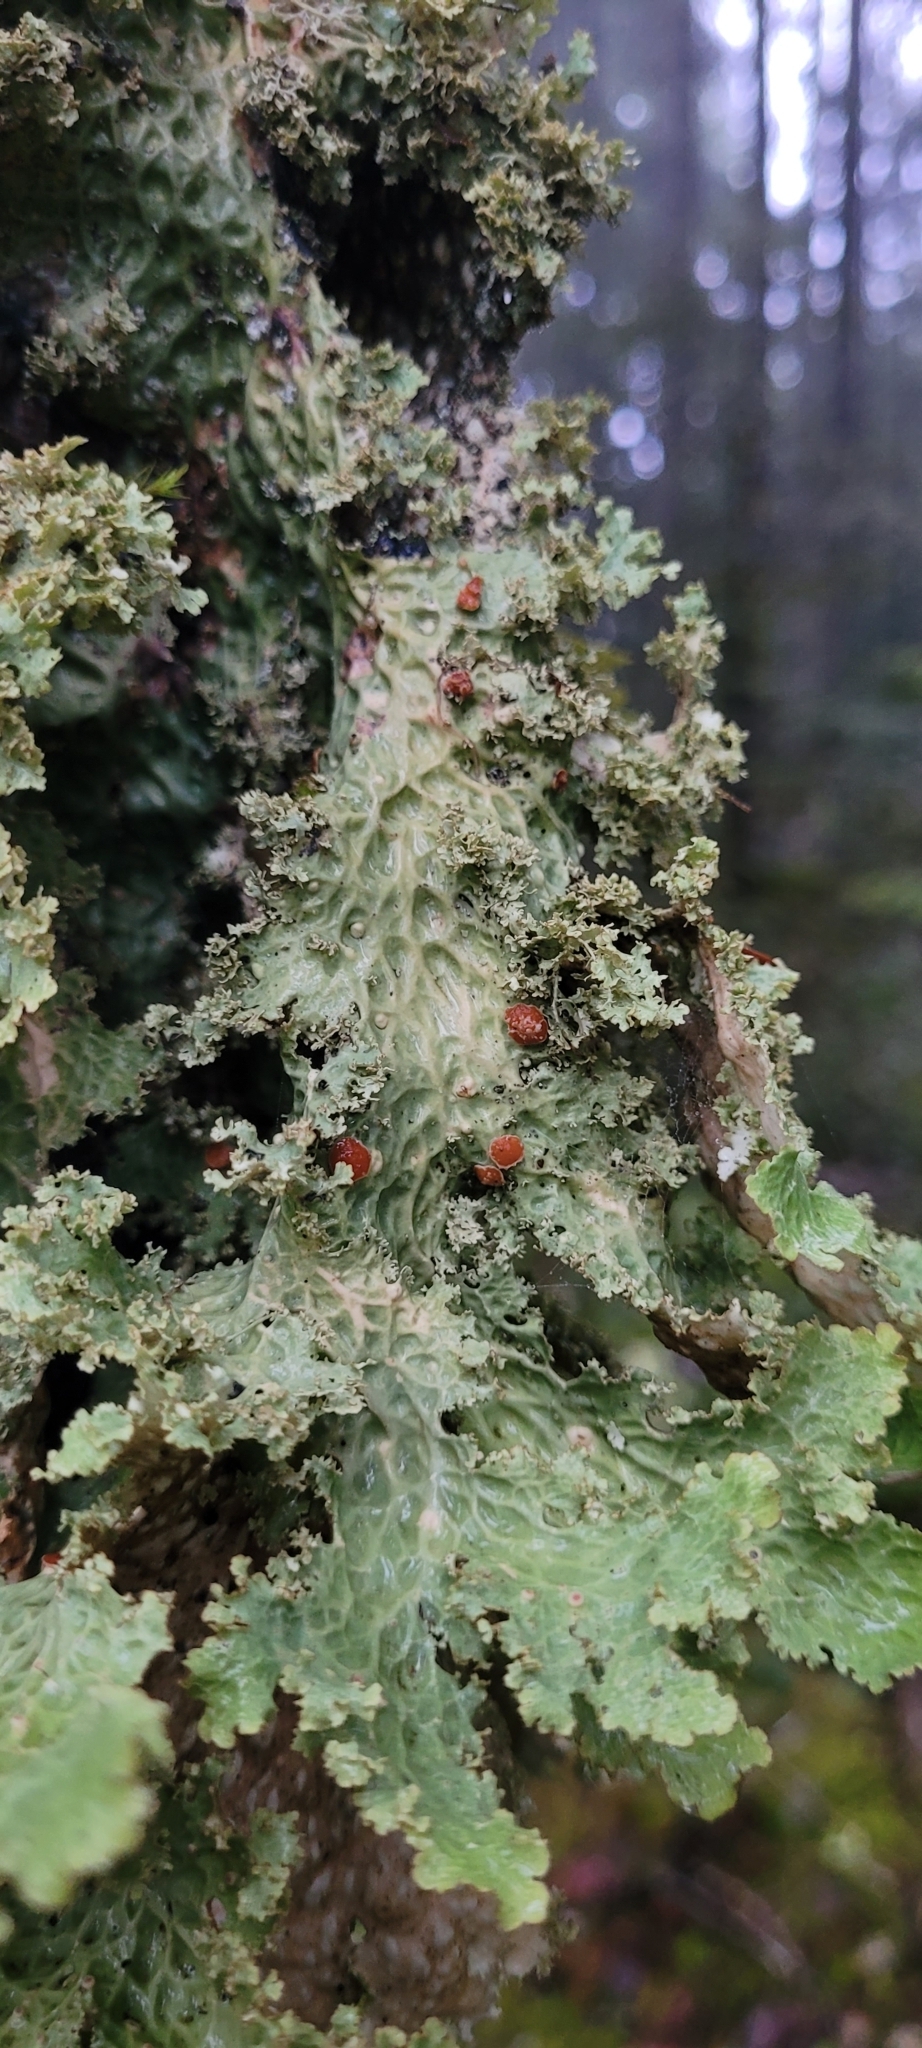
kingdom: Fungi
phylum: Ascomycota
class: Lecanoromycetes
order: Peltigerales
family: Lobariaceae
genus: Lobaria
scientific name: Lobaria oregana
